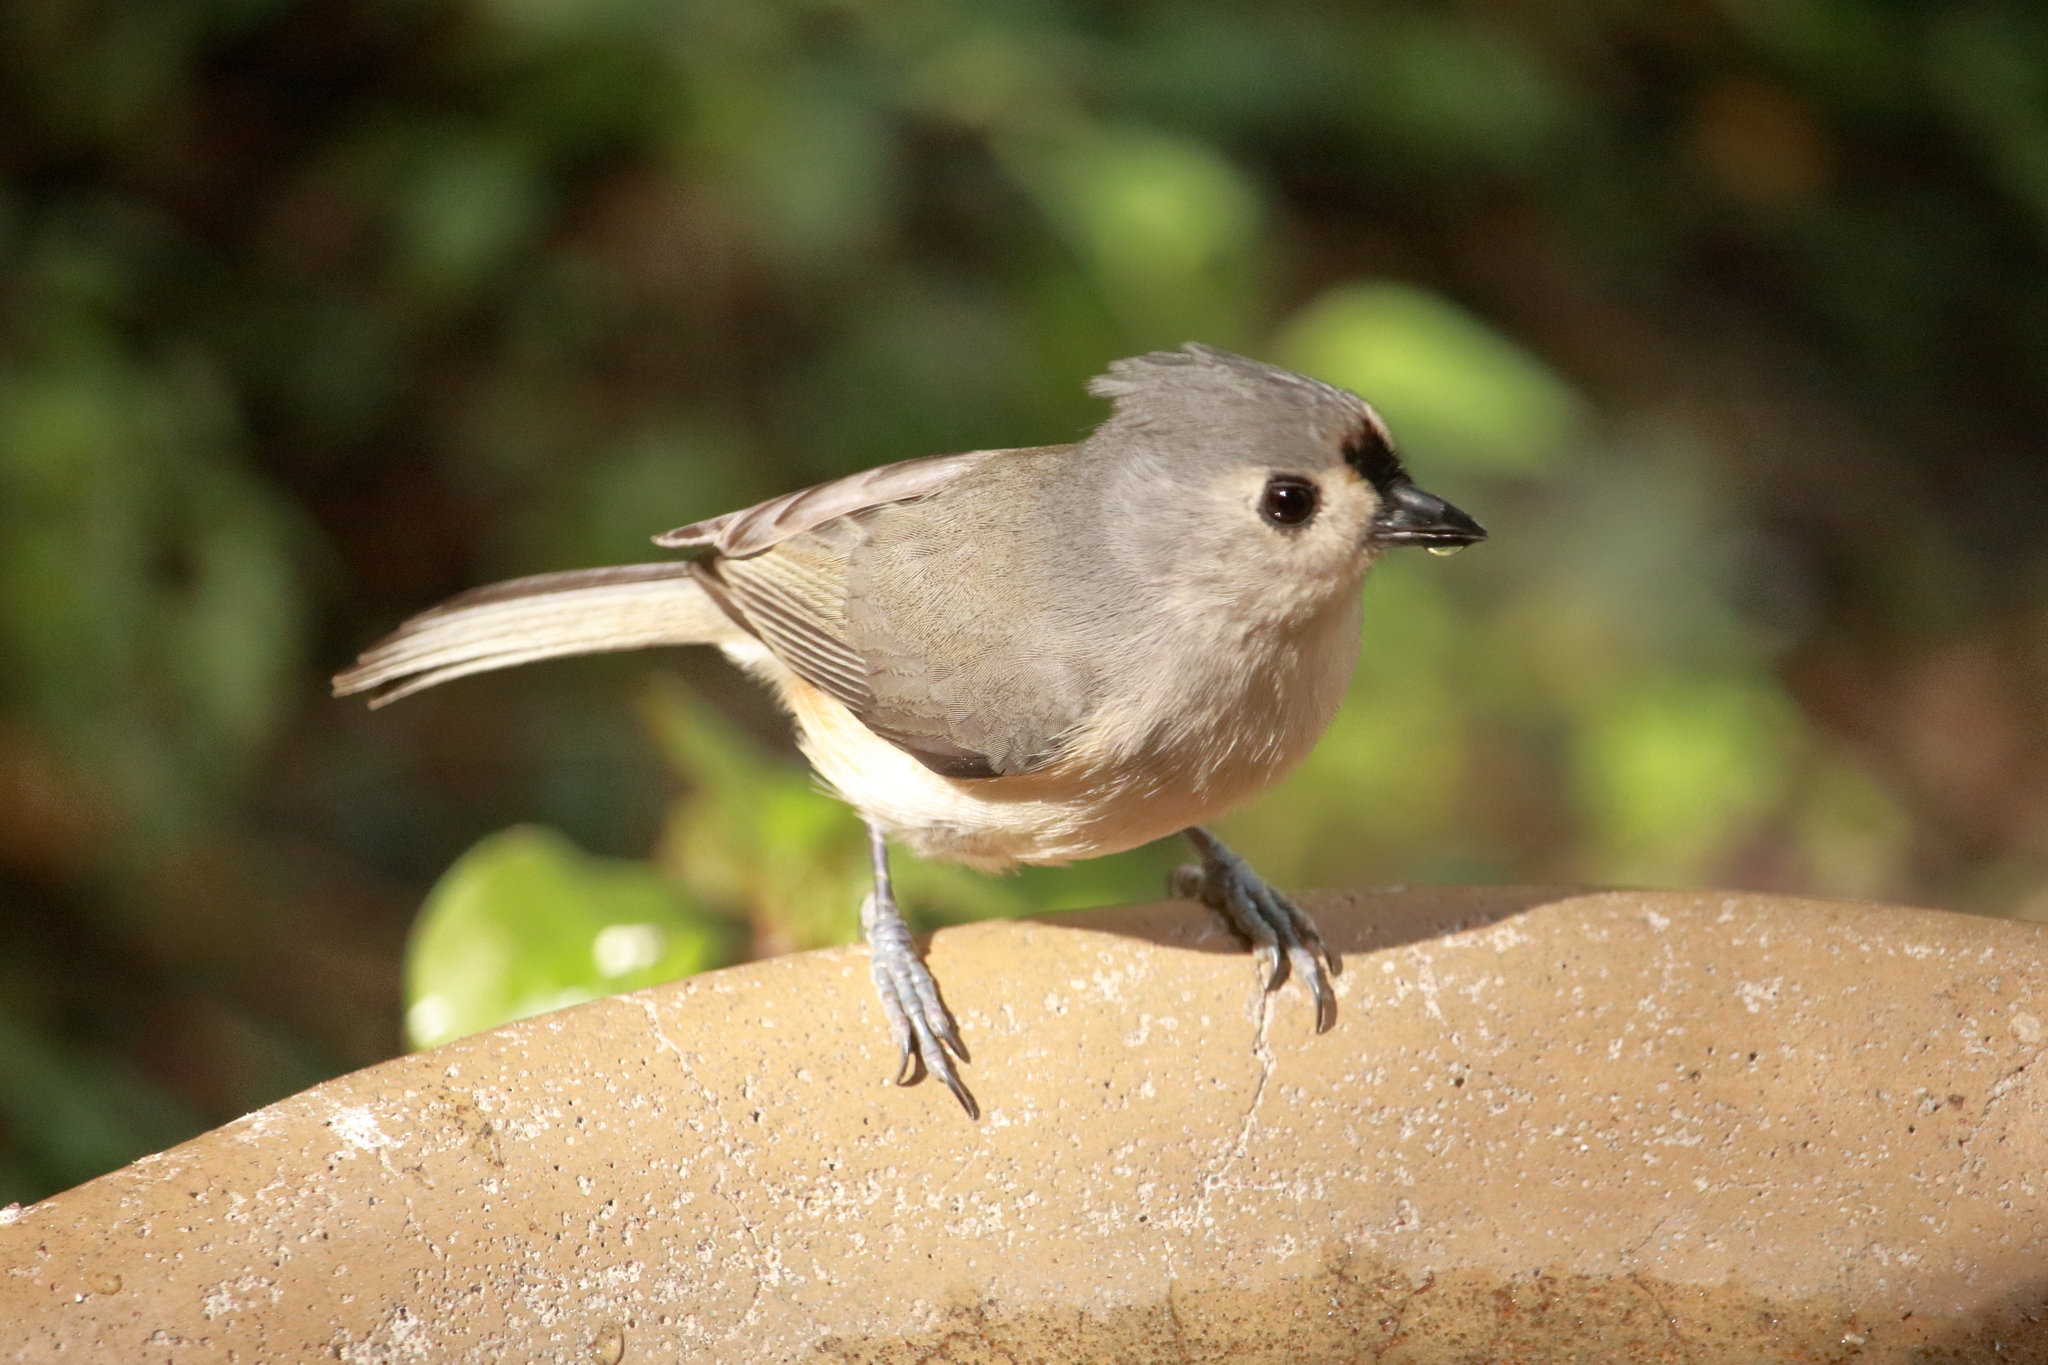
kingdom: Animalia
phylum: Chordata
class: Aves
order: Passeriformes
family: Paridae
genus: Baeolophus
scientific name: Baeolophus bicolor
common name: Tufted titmouse
